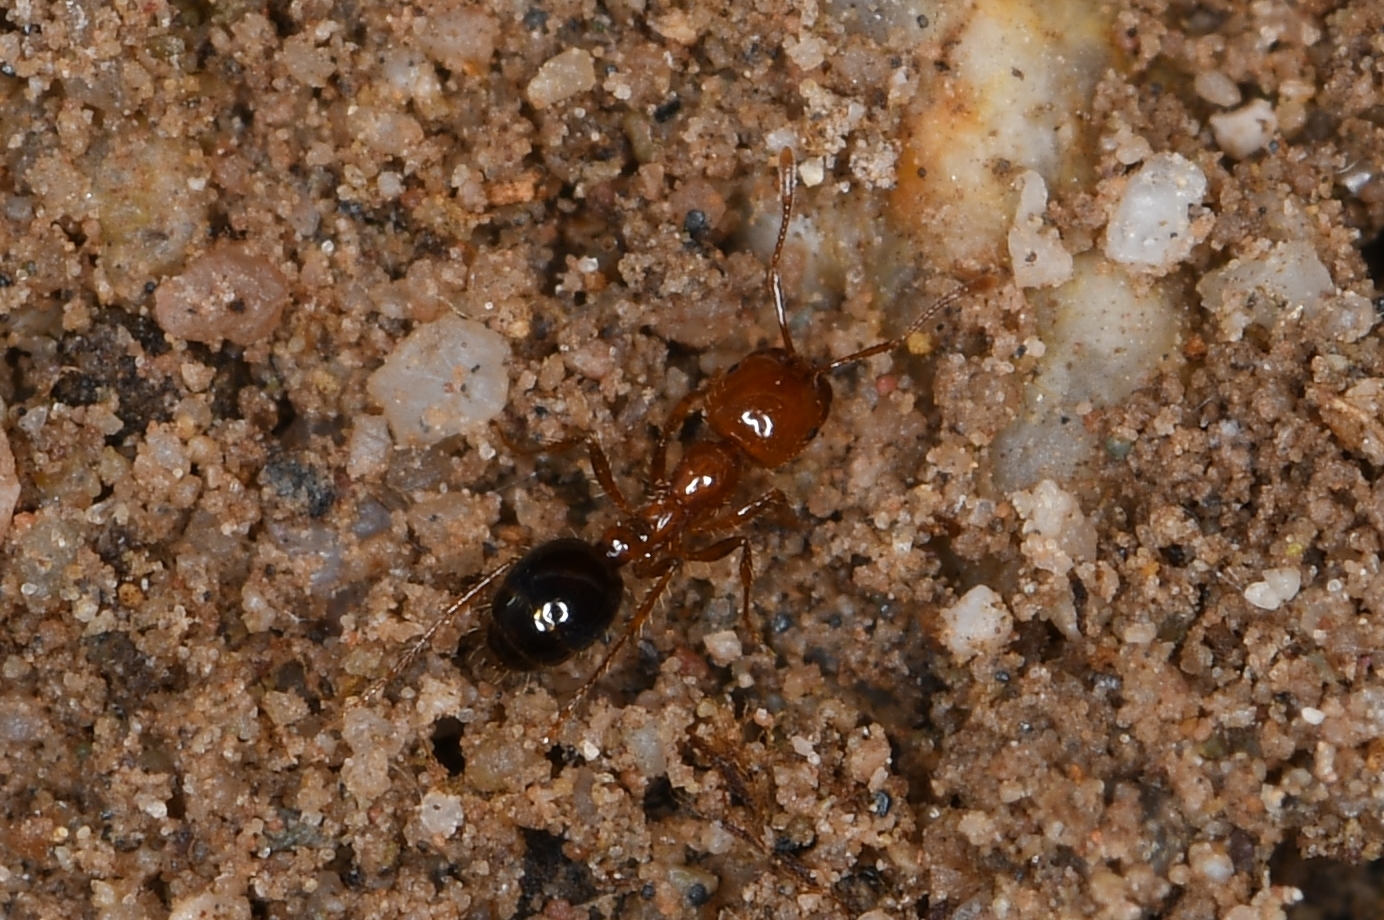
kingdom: Animalia
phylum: Arthropoda
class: Insecta
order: Hymenoptera
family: Formicidae
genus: Solenopsis
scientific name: Solenopsis xyloni
